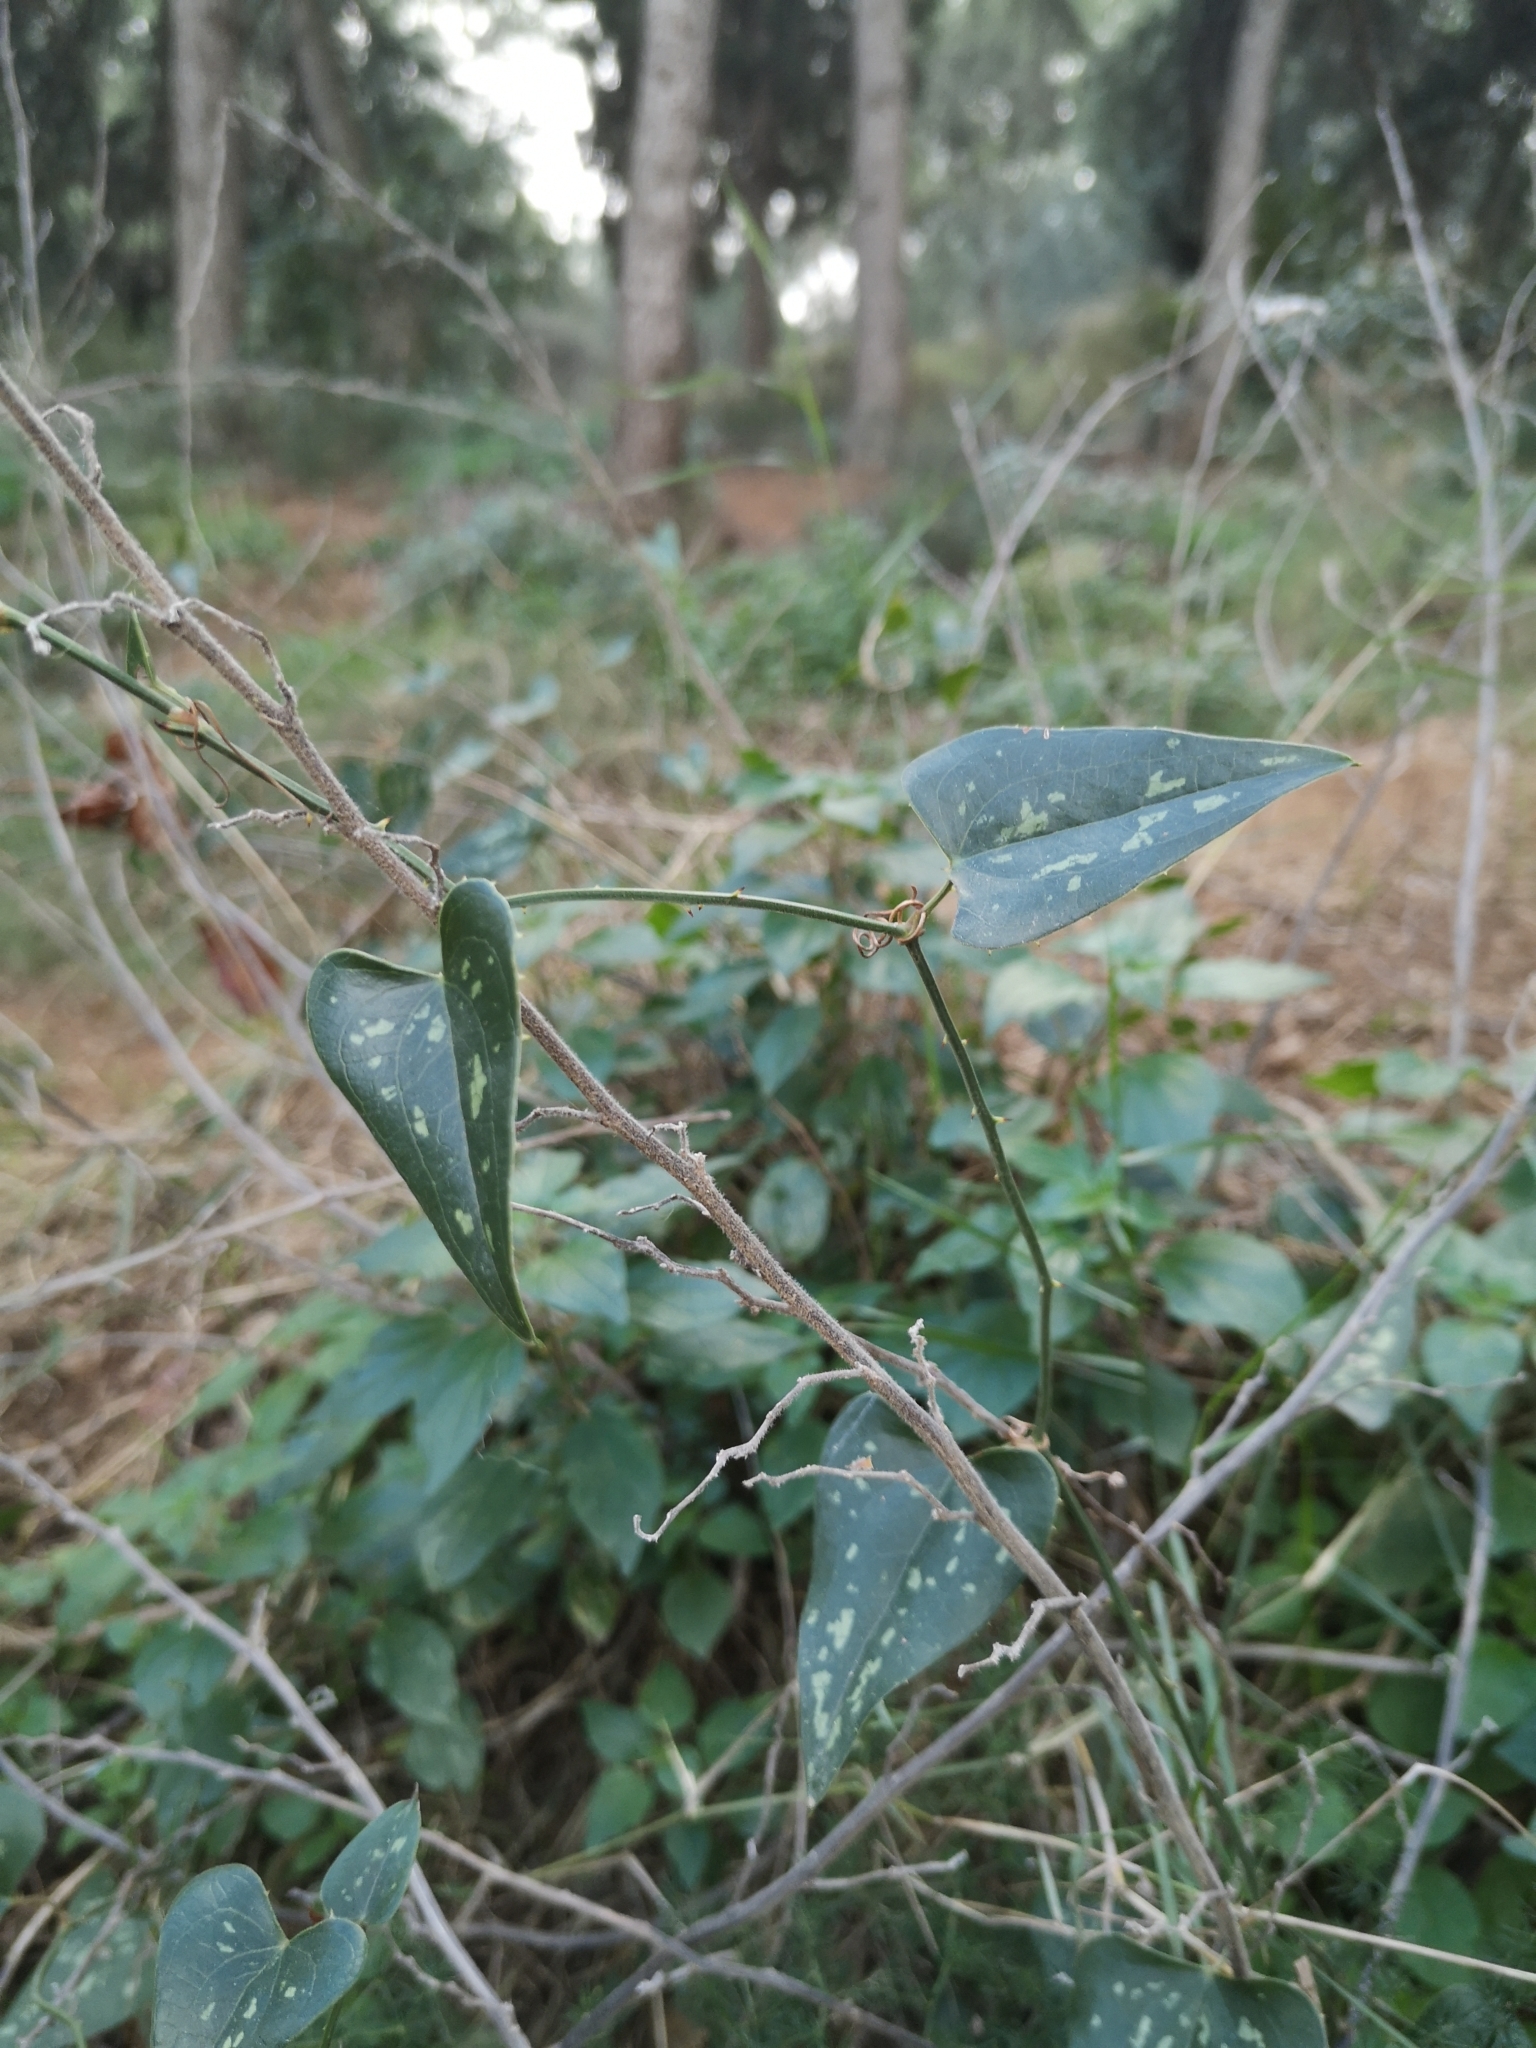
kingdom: Plantae
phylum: Tracheophyta
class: Liliopsida
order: Liliales
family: Smilacaceae
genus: Smilax
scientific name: Smilax aspera
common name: Common smilax
